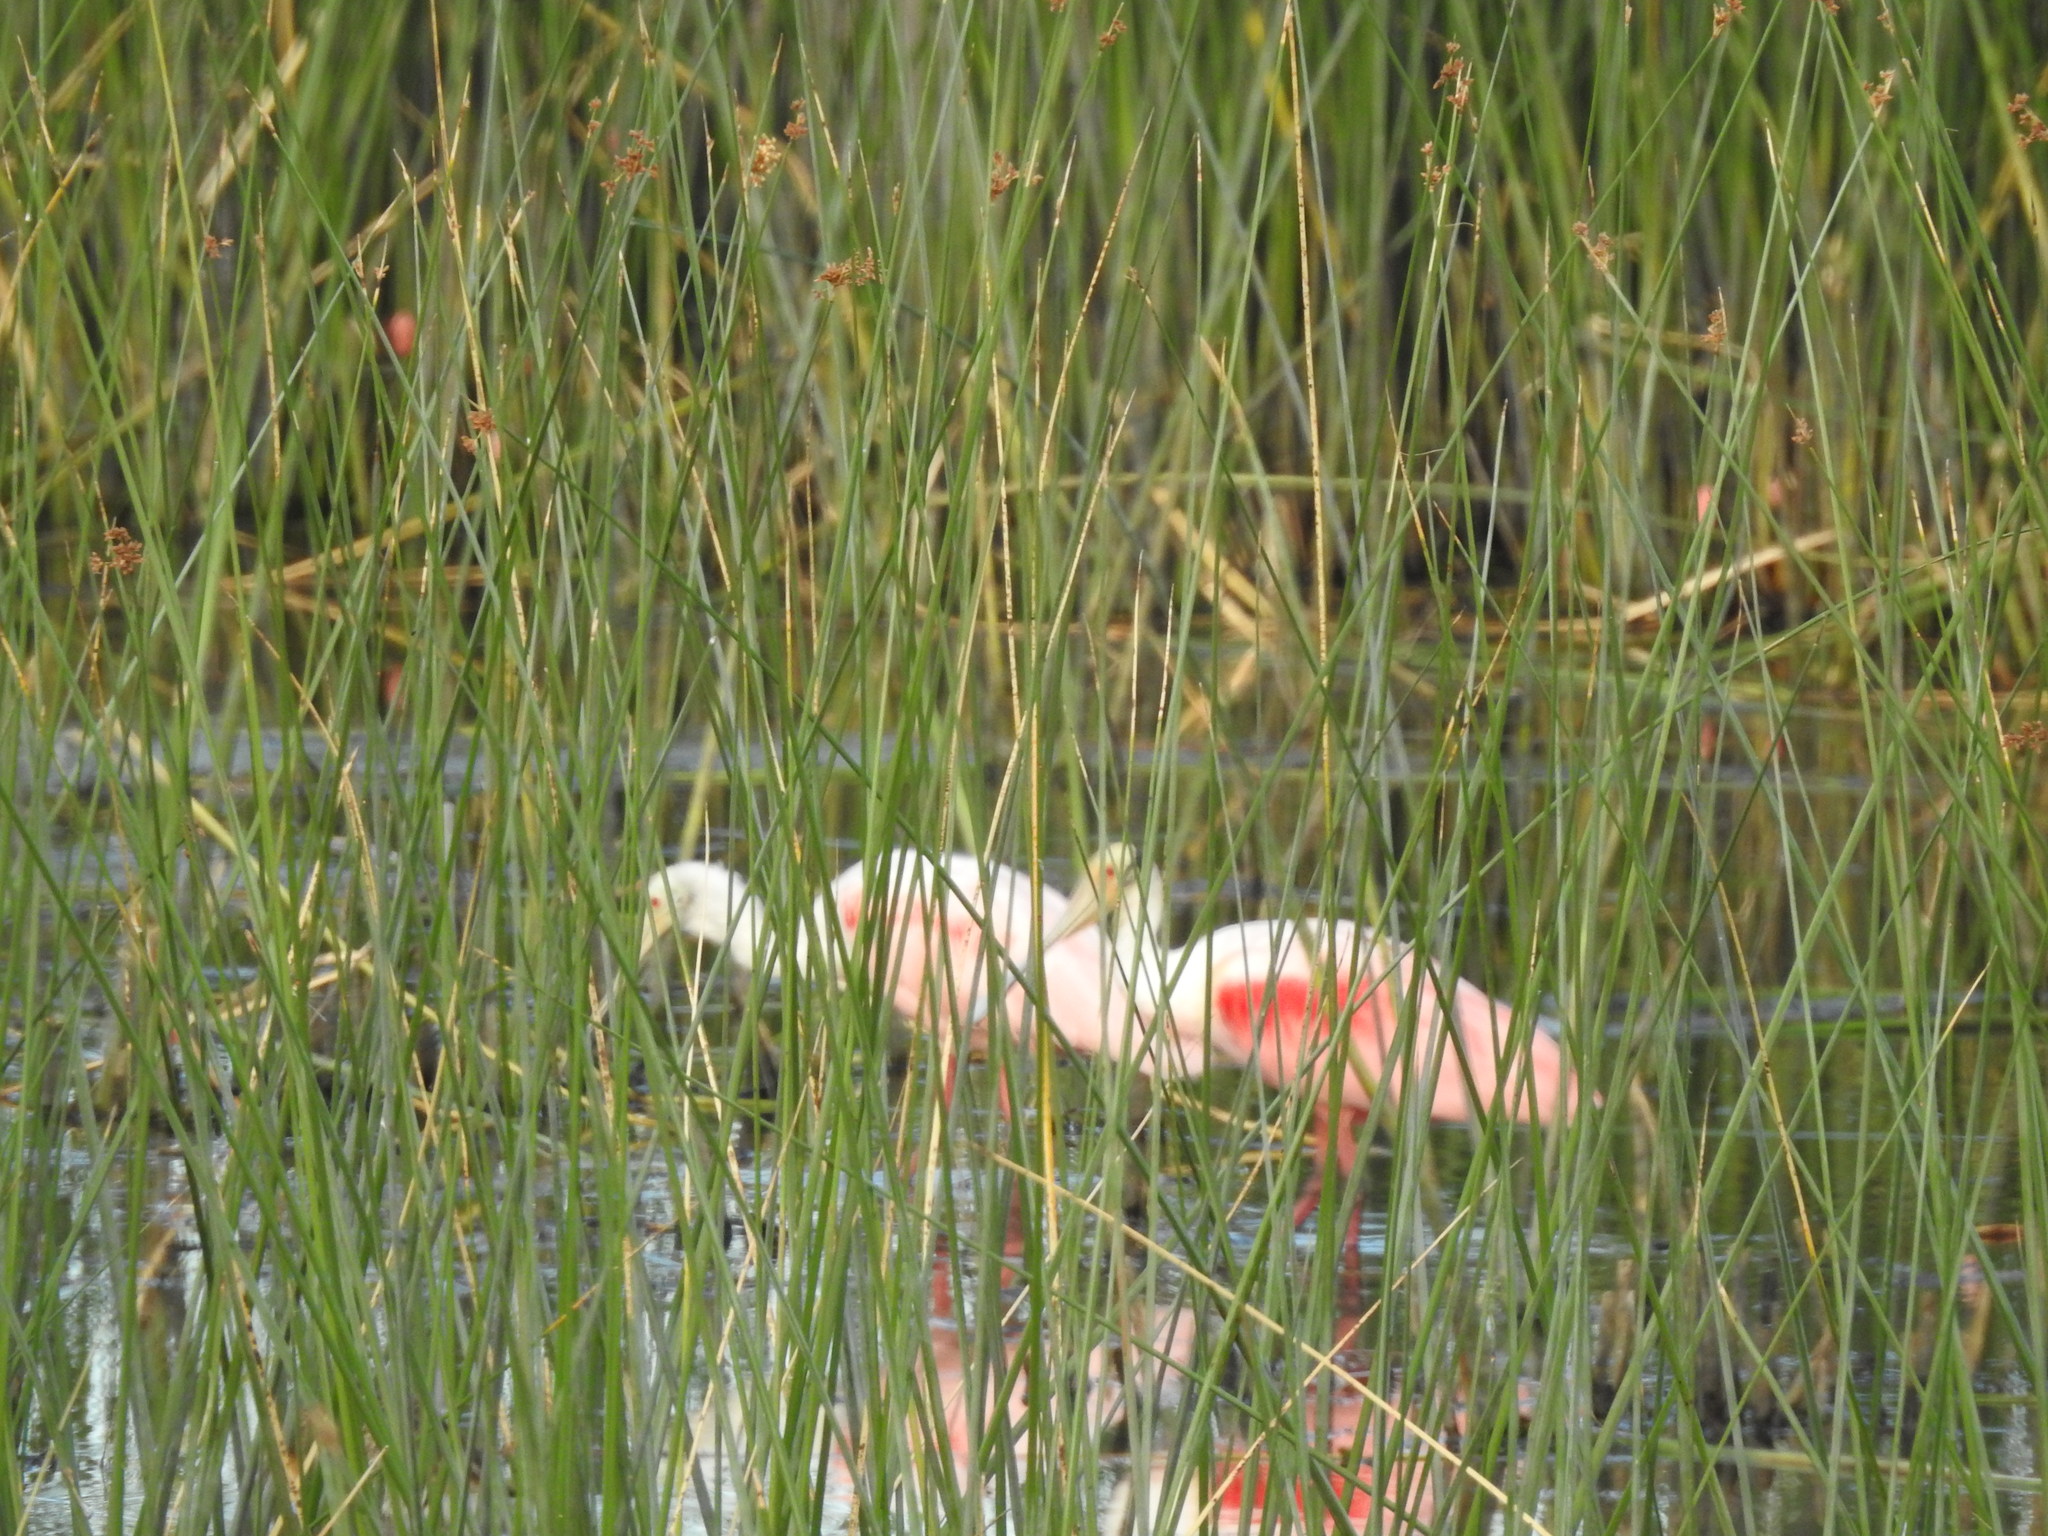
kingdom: Animalia
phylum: Chordata
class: Aves
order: Pelecaniformes
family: Threskiornithidae
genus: Platalea
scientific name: Platalea ajaja
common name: Roseate spoonbill
